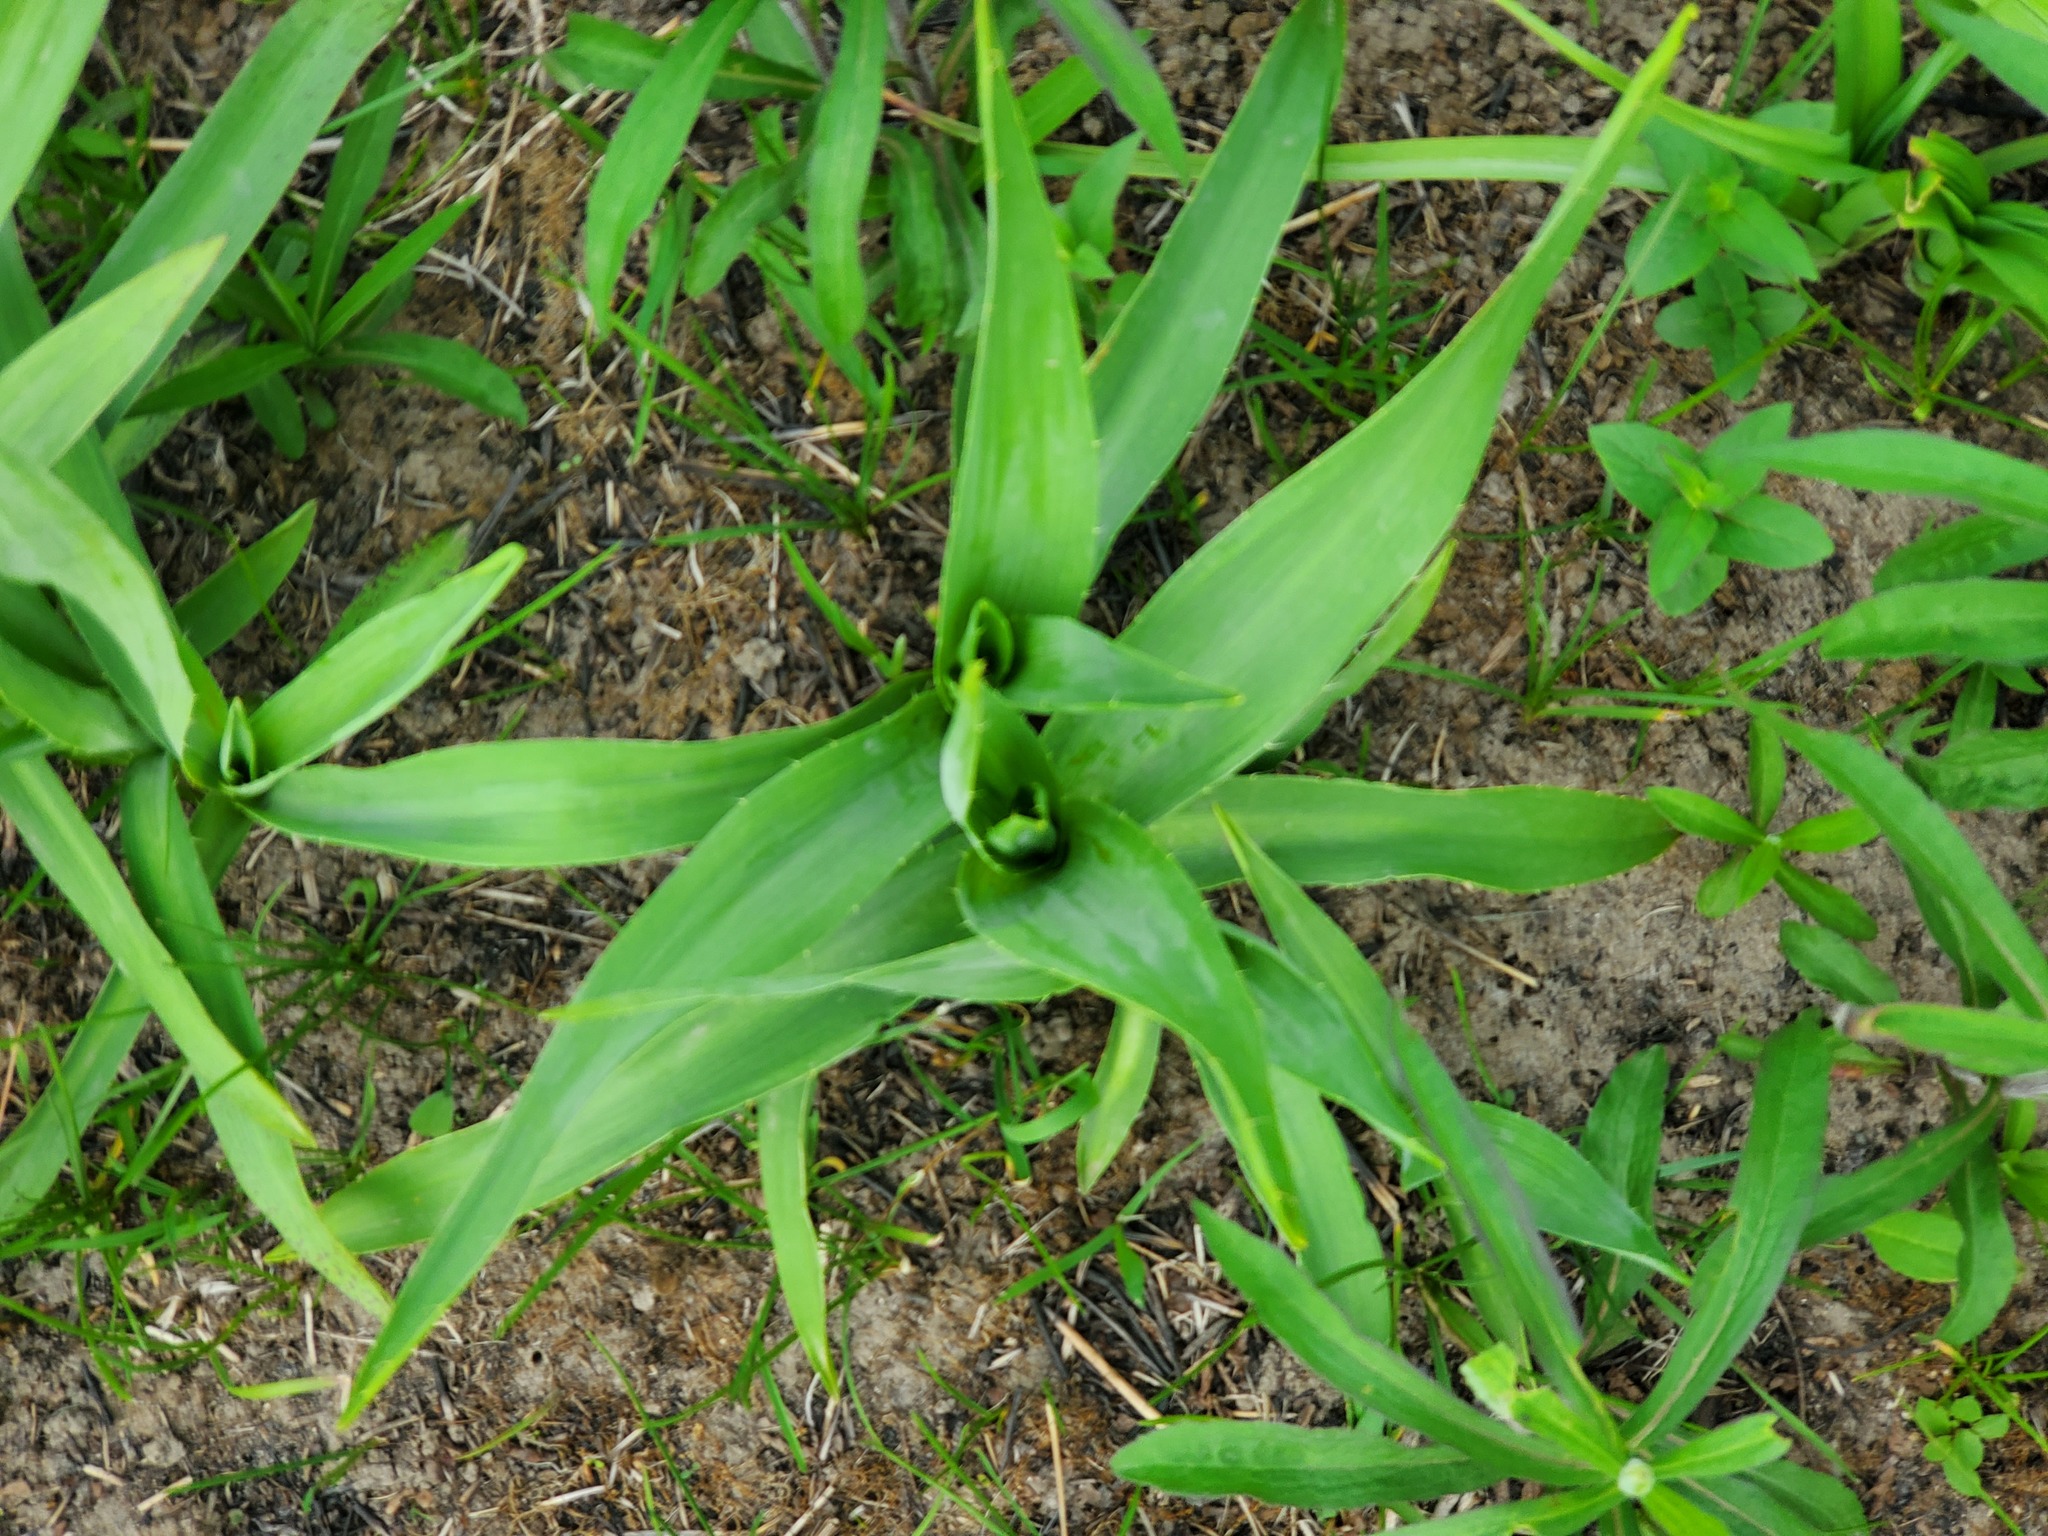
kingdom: Plantae
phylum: Tracheophyta
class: Magnoliopsida
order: Apiales
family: Apiaceae
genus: Eryngium
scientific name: Eryngium yuccifolium
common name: Button eryngo
